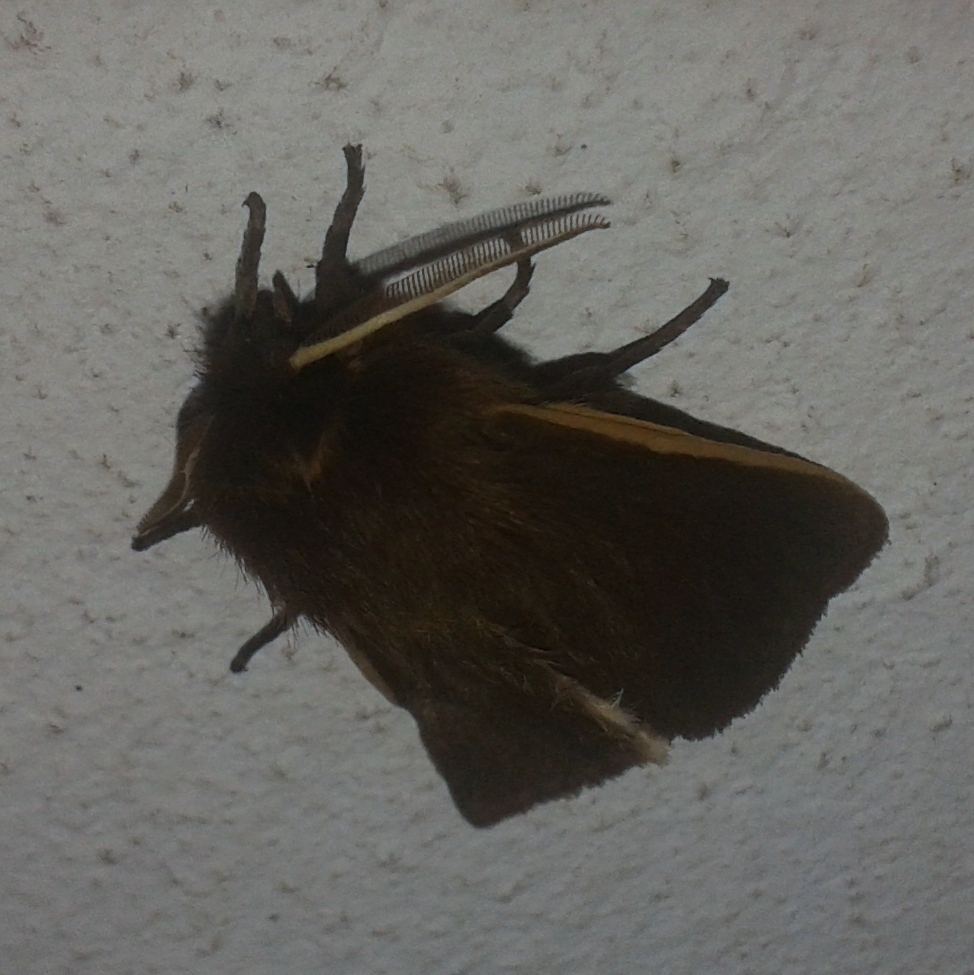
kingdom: Animalia
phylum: Arthropoda
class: Insecta
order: Lepidoptera
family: Erebidae
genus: Paracles
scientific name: Paracles contraria
